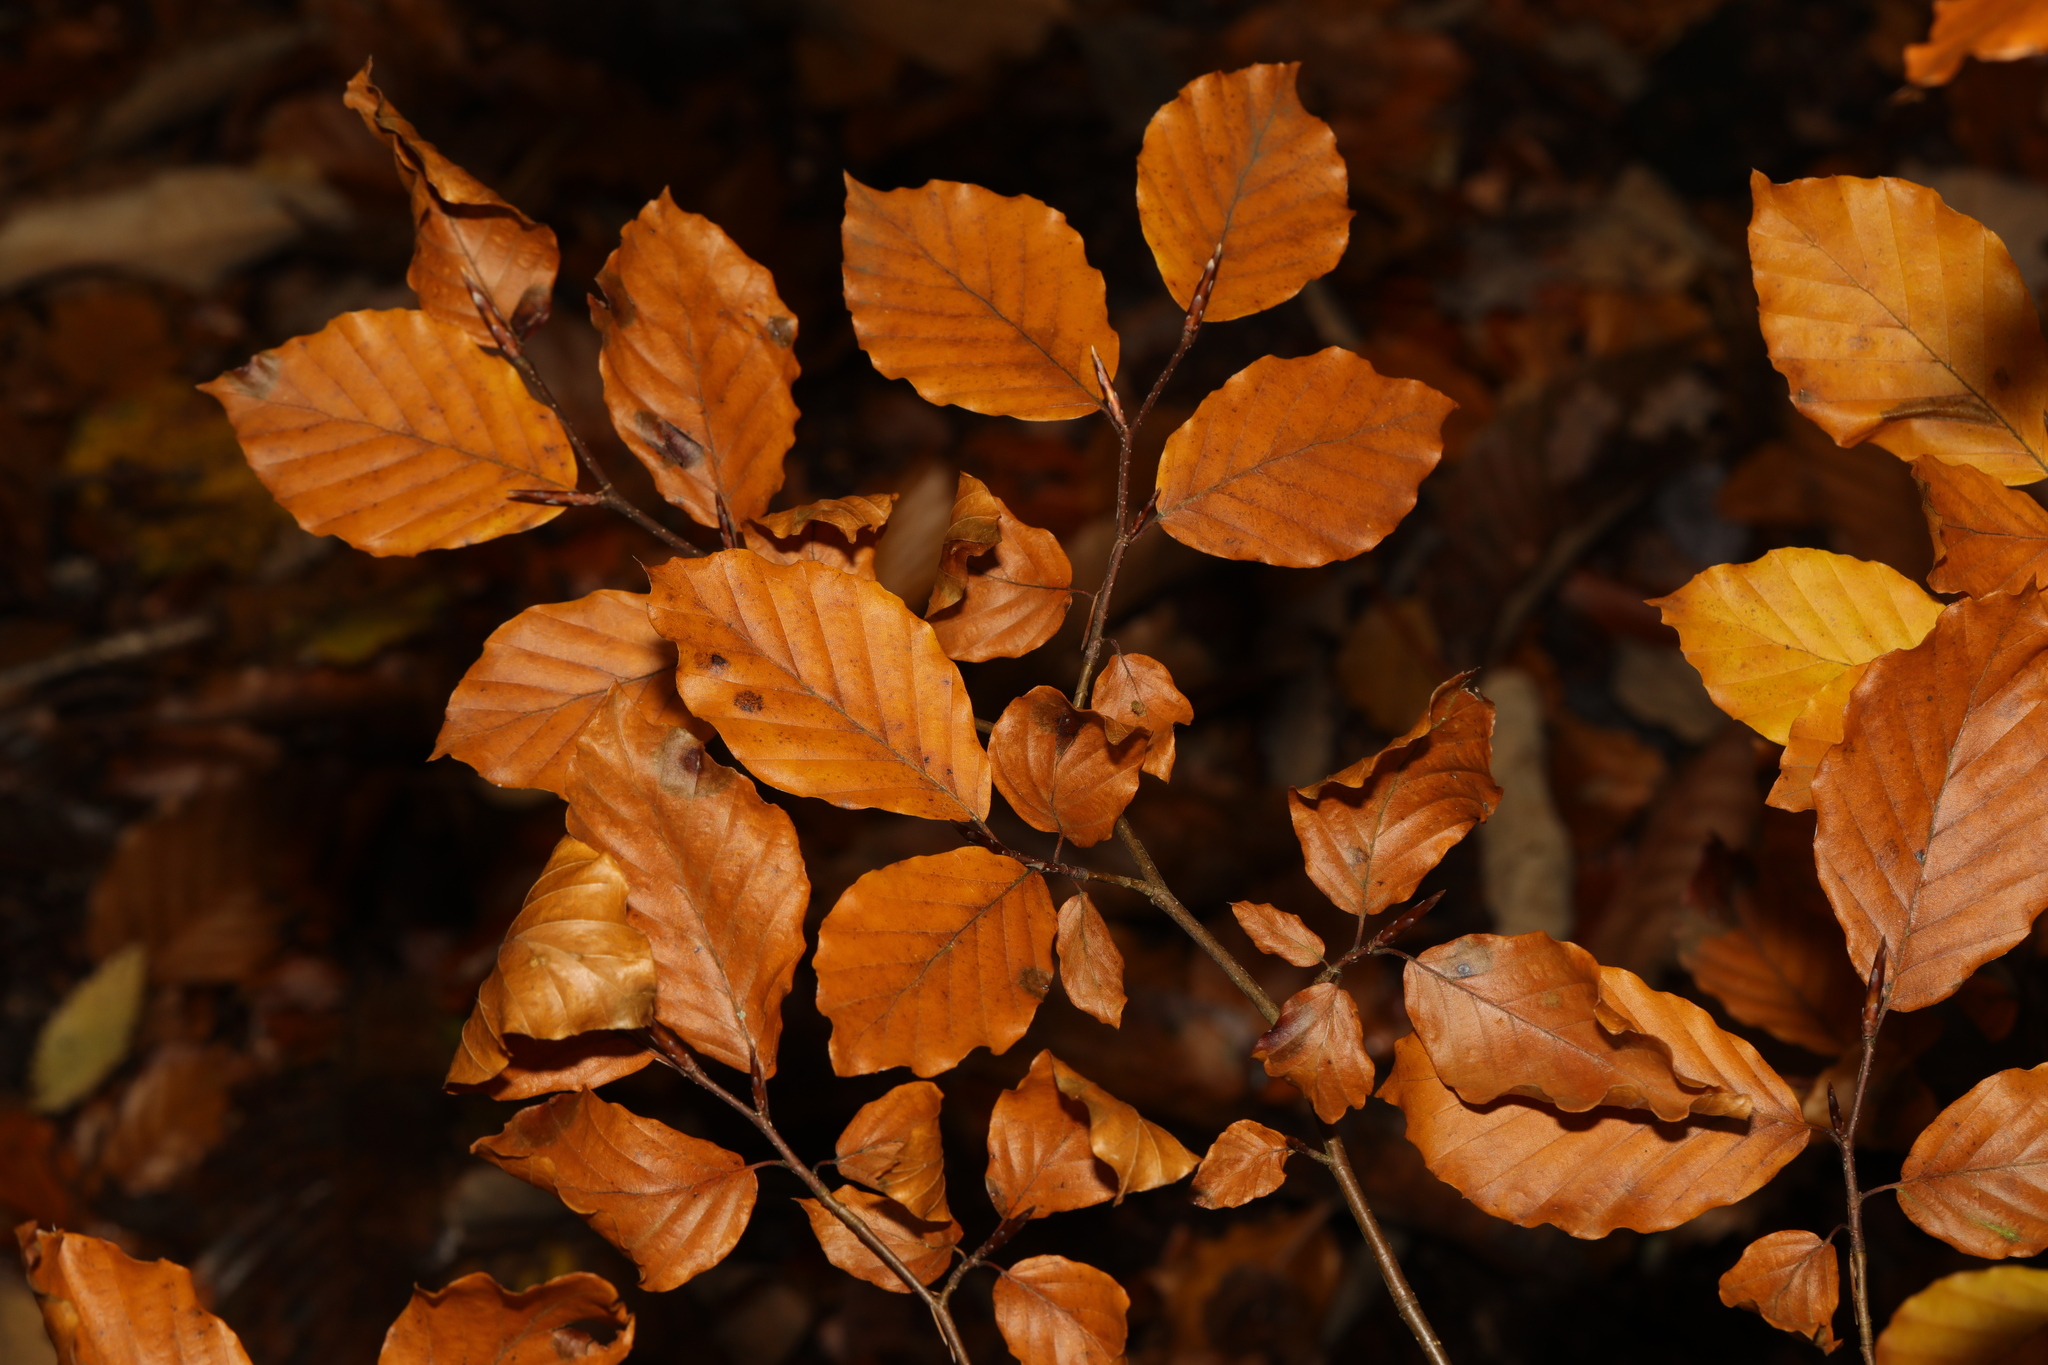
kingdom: Plantae
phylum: Tracheophyta
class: Magnoliopsida
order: Fagales
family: Fagaceae
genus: Fagus
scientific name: Fagus sylvatica
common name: Beech
